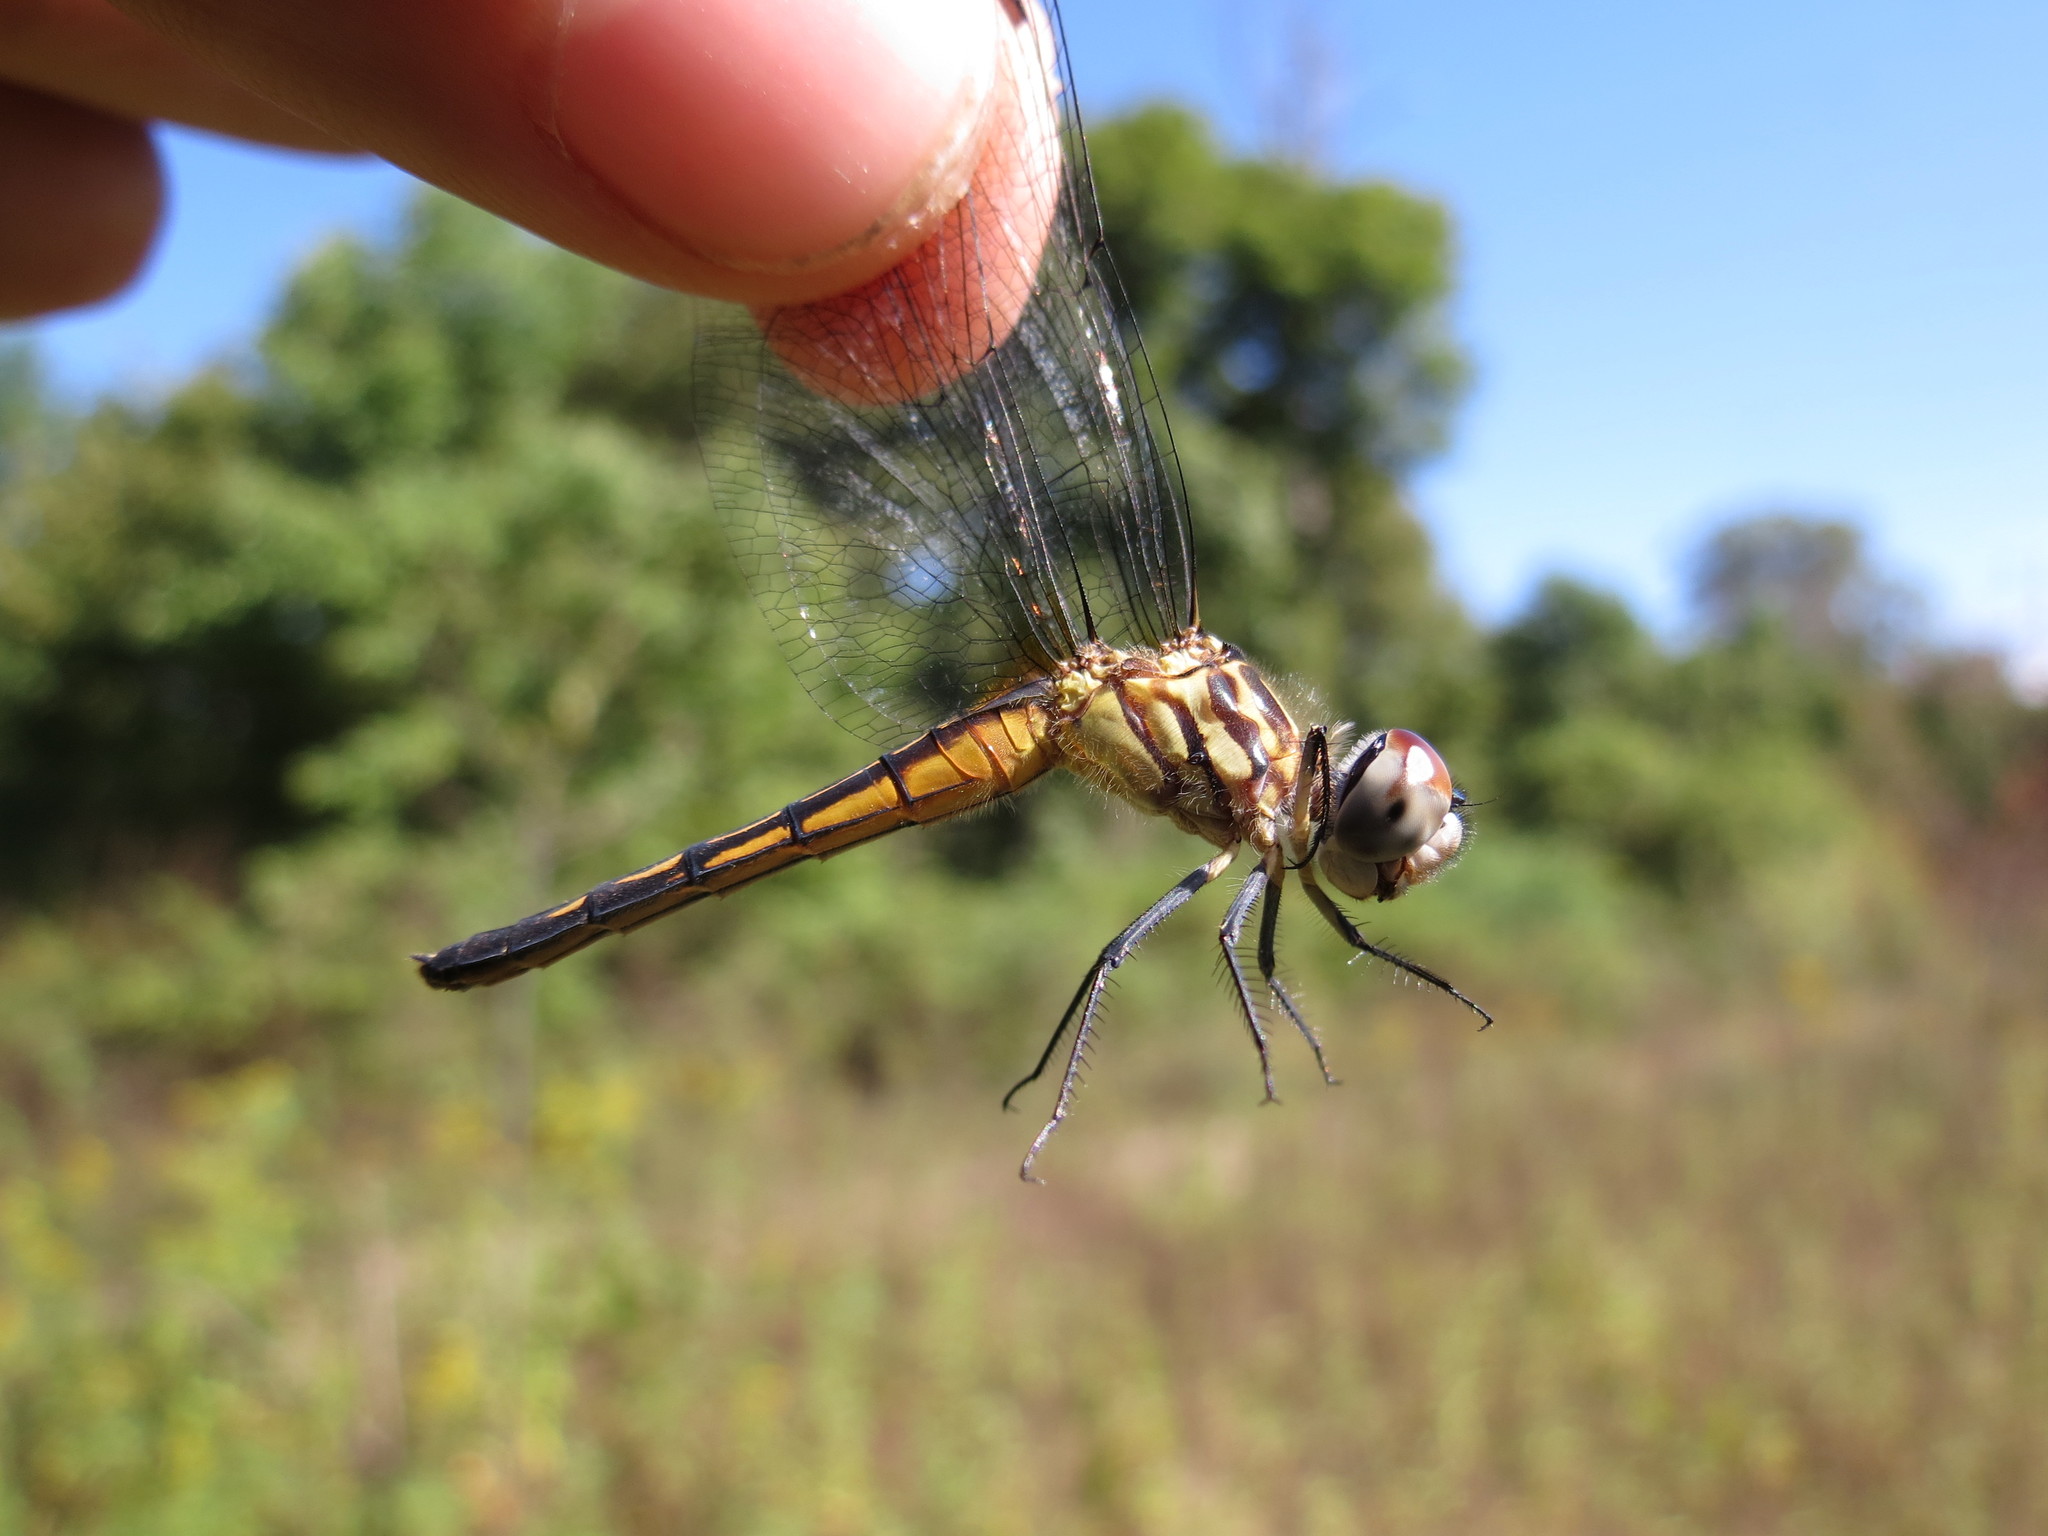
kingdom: Animalia
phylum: Arthropoda
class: Insecta
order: Odonata
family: Libellulidae
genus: Pachydiplax
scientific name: Pachydiplax longipennis
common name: Blue dasher
